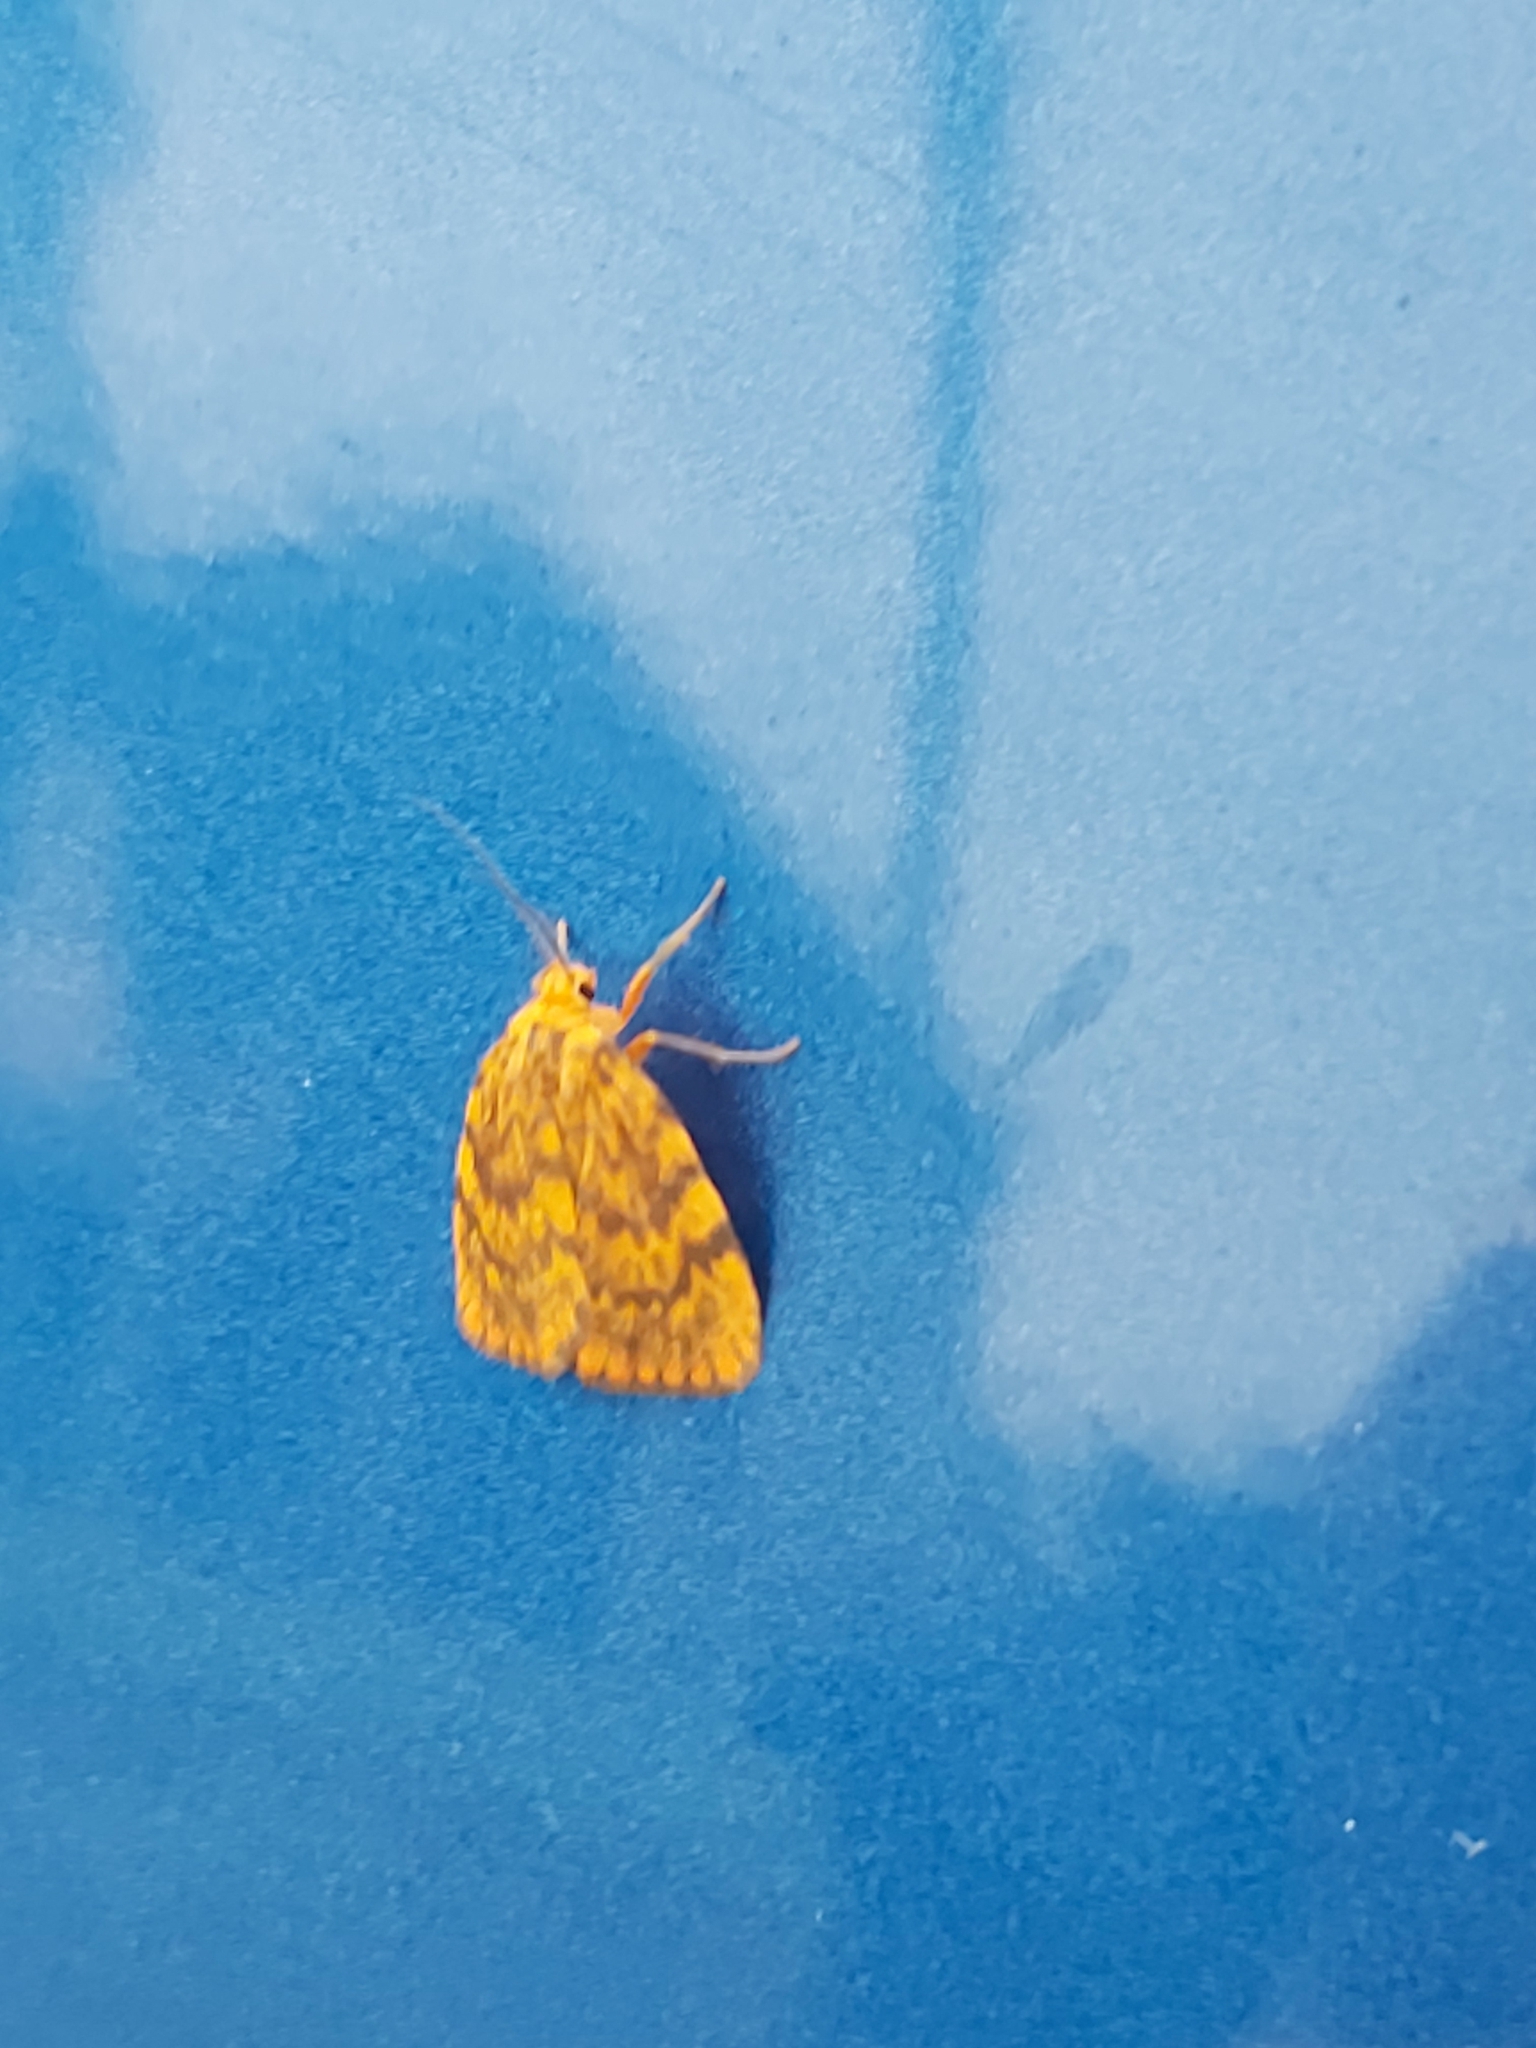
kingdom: Animalia
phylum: Arthropoda
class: Insecta
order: Lepidoptera
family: Erebidae
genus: Cyme
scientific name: Cyme structa
